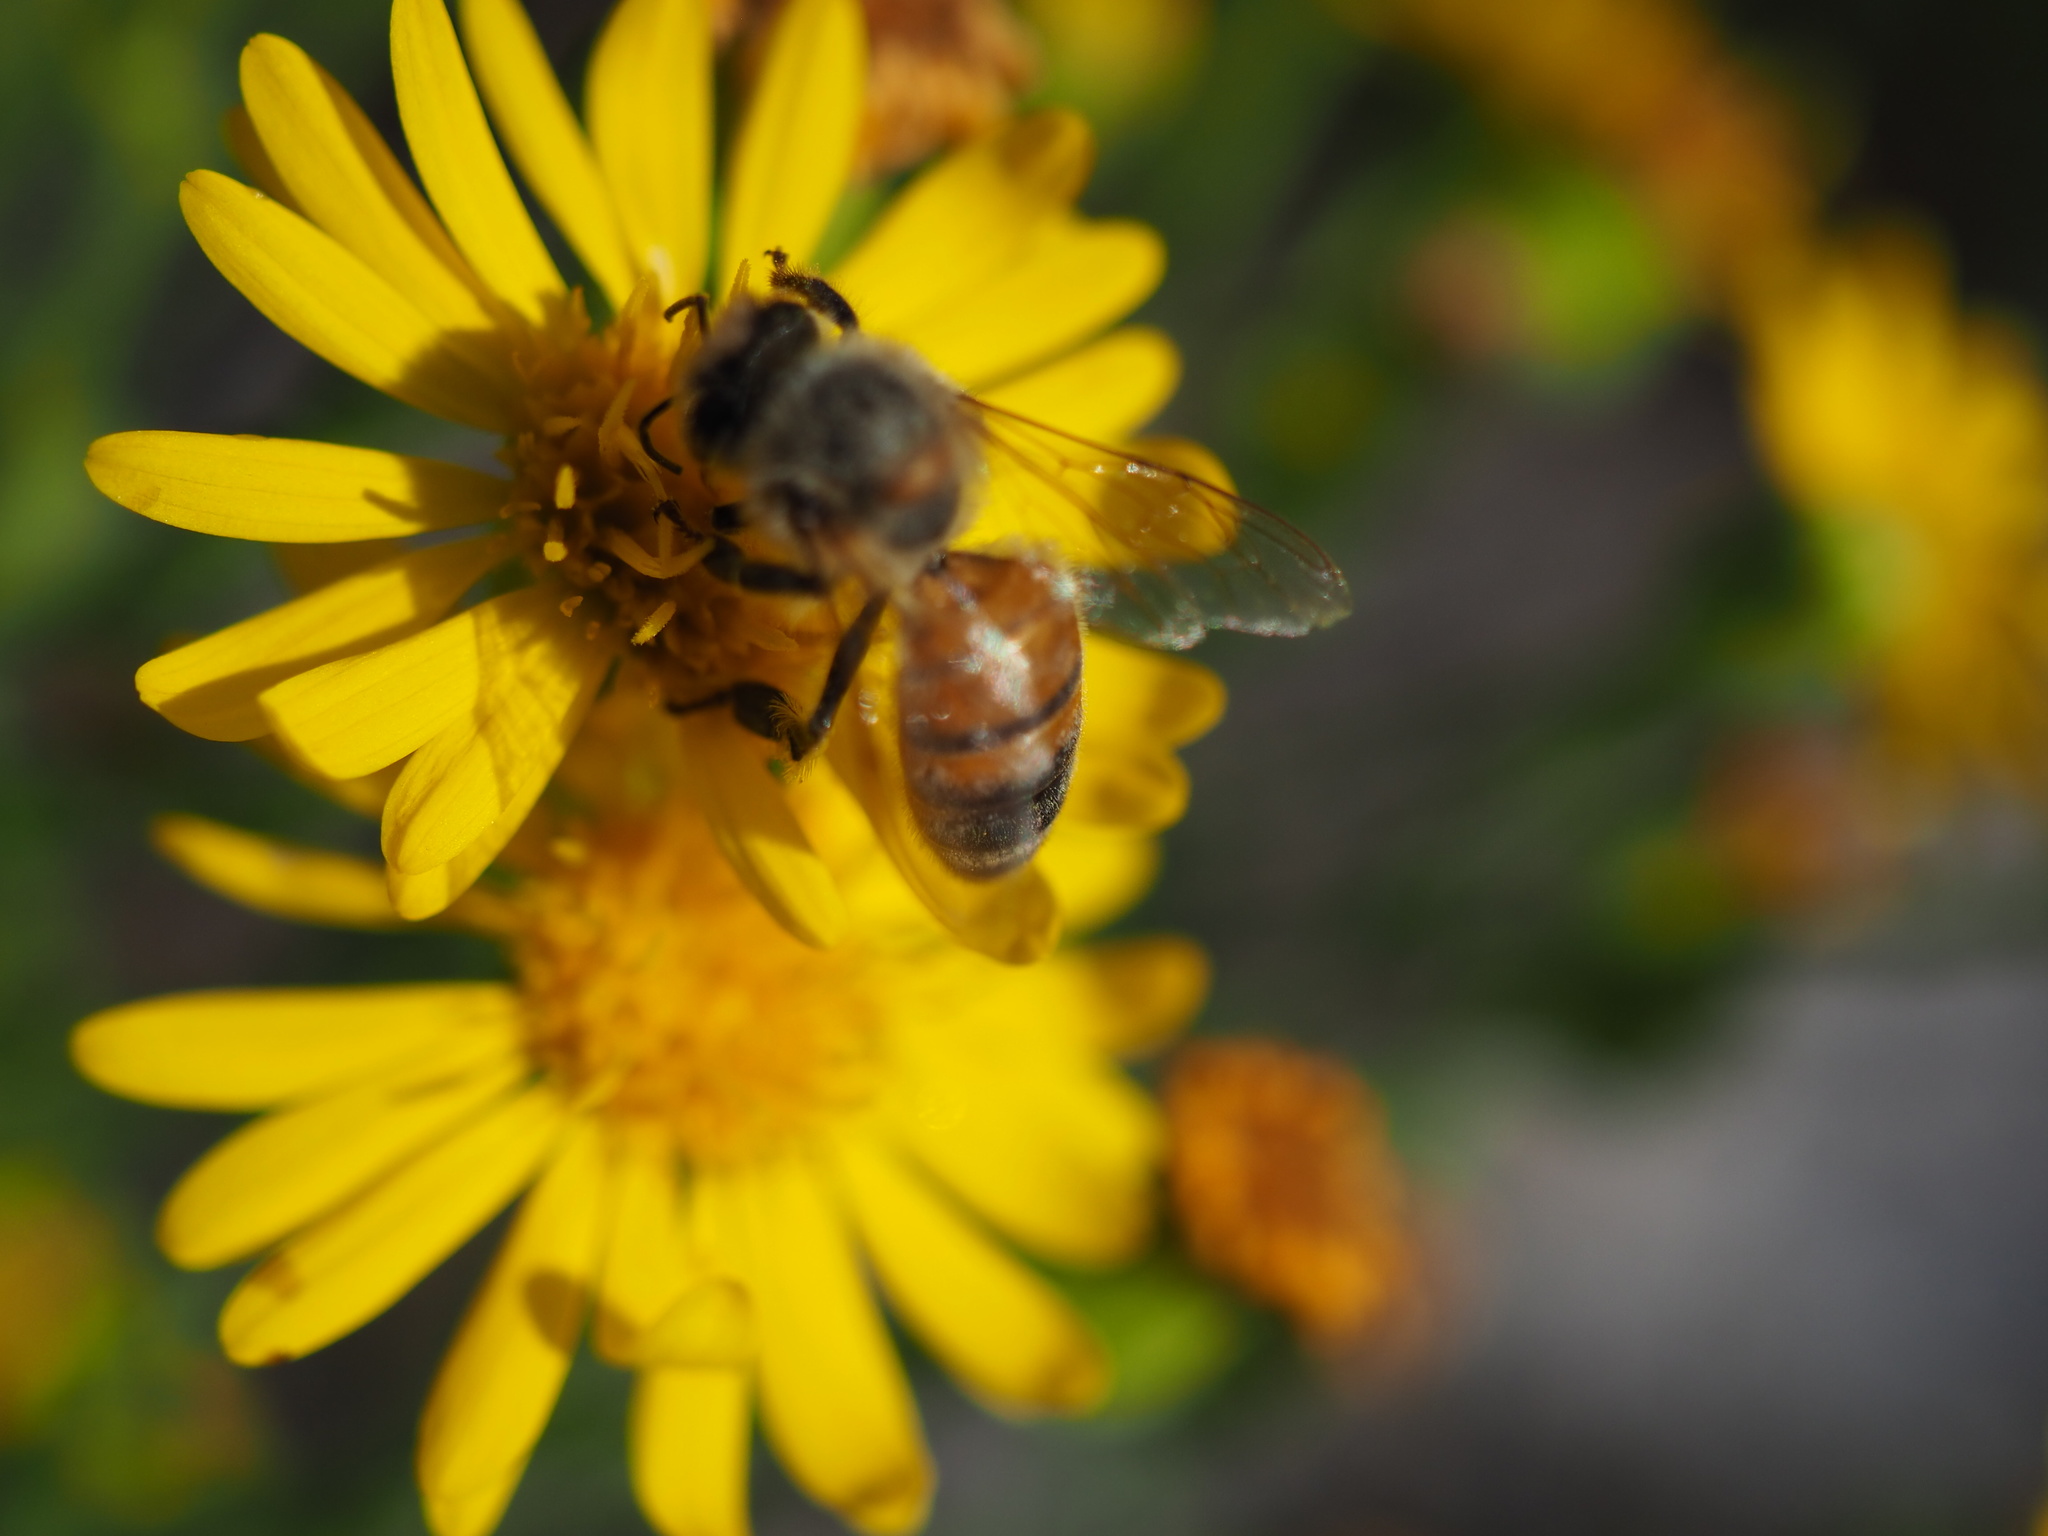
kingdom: Animalia
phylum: Arthropoda
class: Insecta
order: Hymenoptera
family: Apidae
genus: Apis
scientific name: Apis mellifera
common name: Honey bee
